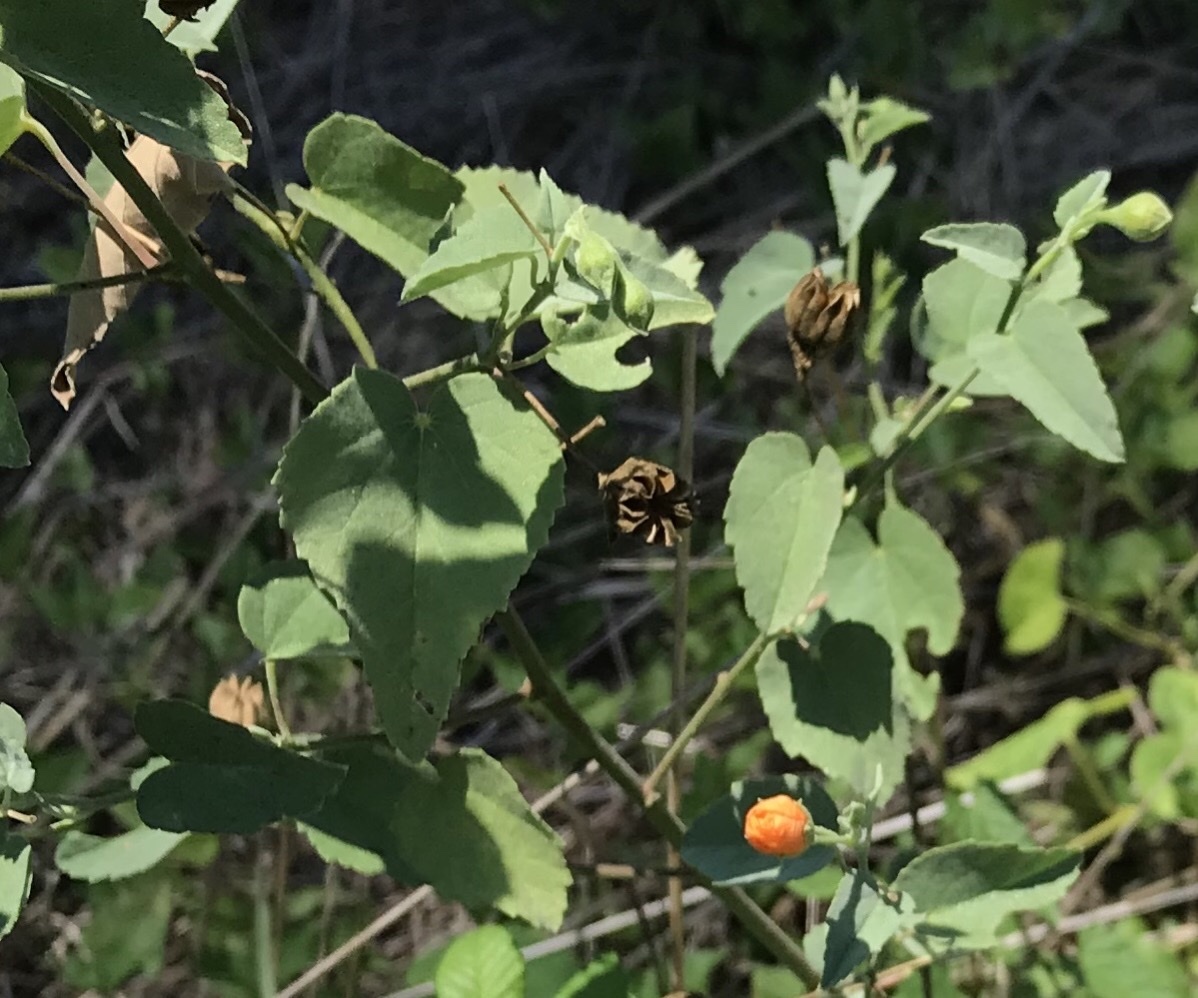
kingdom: Plantae
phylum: Tracheophyta
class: Magnoliopsida
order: Malvales
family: Malvaceae
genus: Abutilon
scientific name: Abutilon fruticosum
